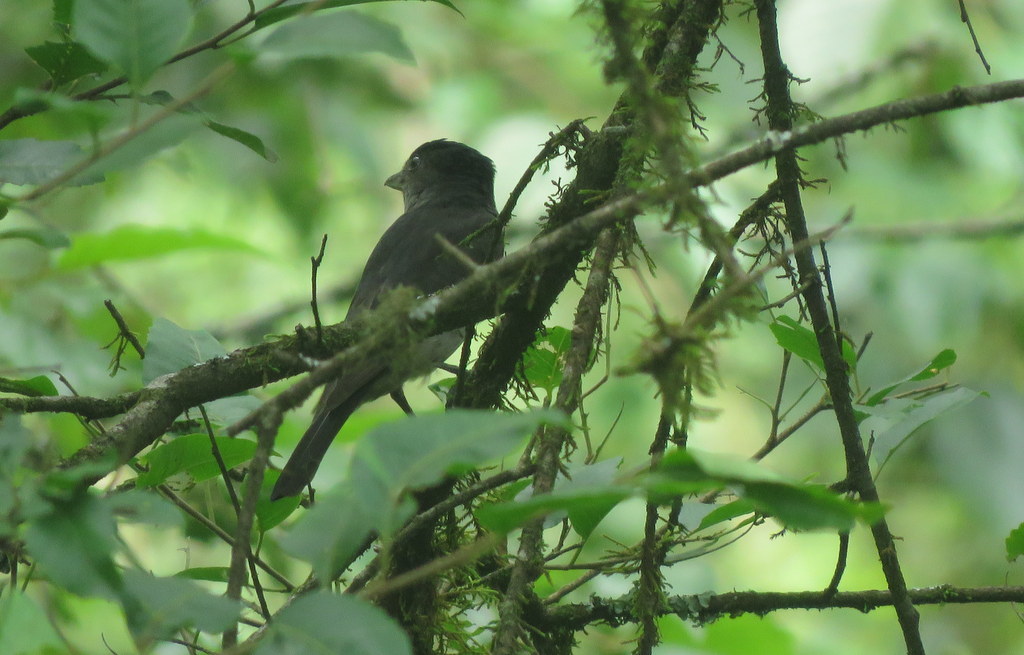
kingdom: Animalia
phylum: Chordata
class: Aves
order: Passeriformes
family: Cotingidae
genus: Pachyramphus
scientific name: Pachyramphus validus
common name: Crested becard
